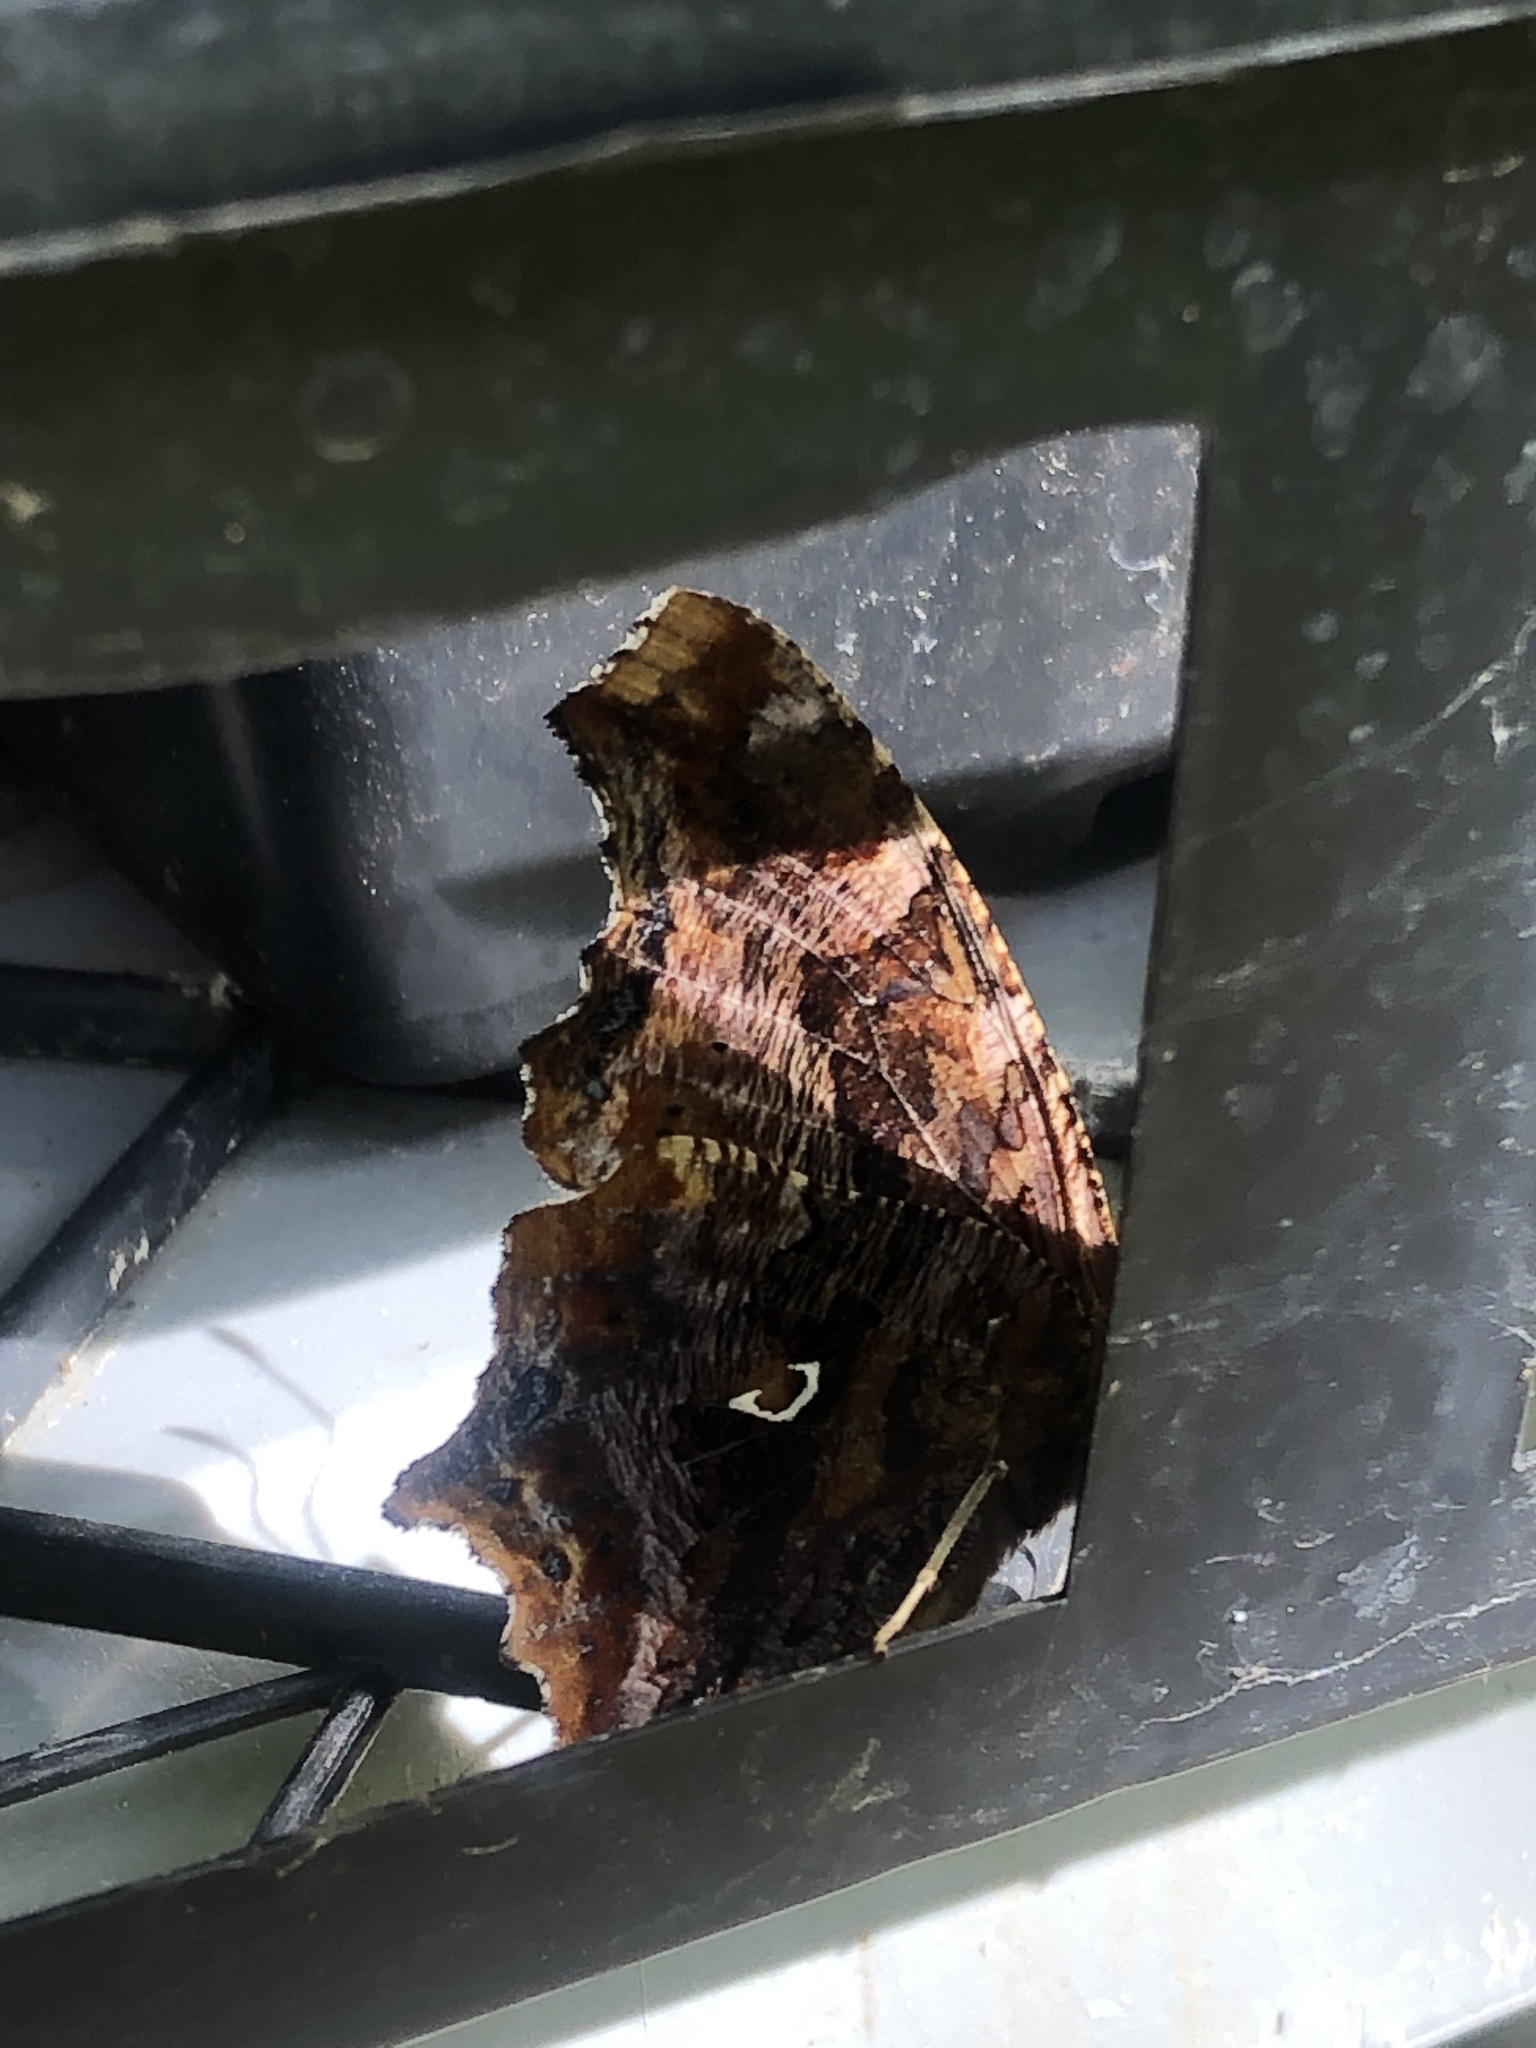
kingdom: Animalia
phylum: Arthropoda
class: Insecta
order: Lepidoptera
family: Nymphalidae
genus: Polygonia
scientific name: Polygonia comma
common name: Eastern comma
